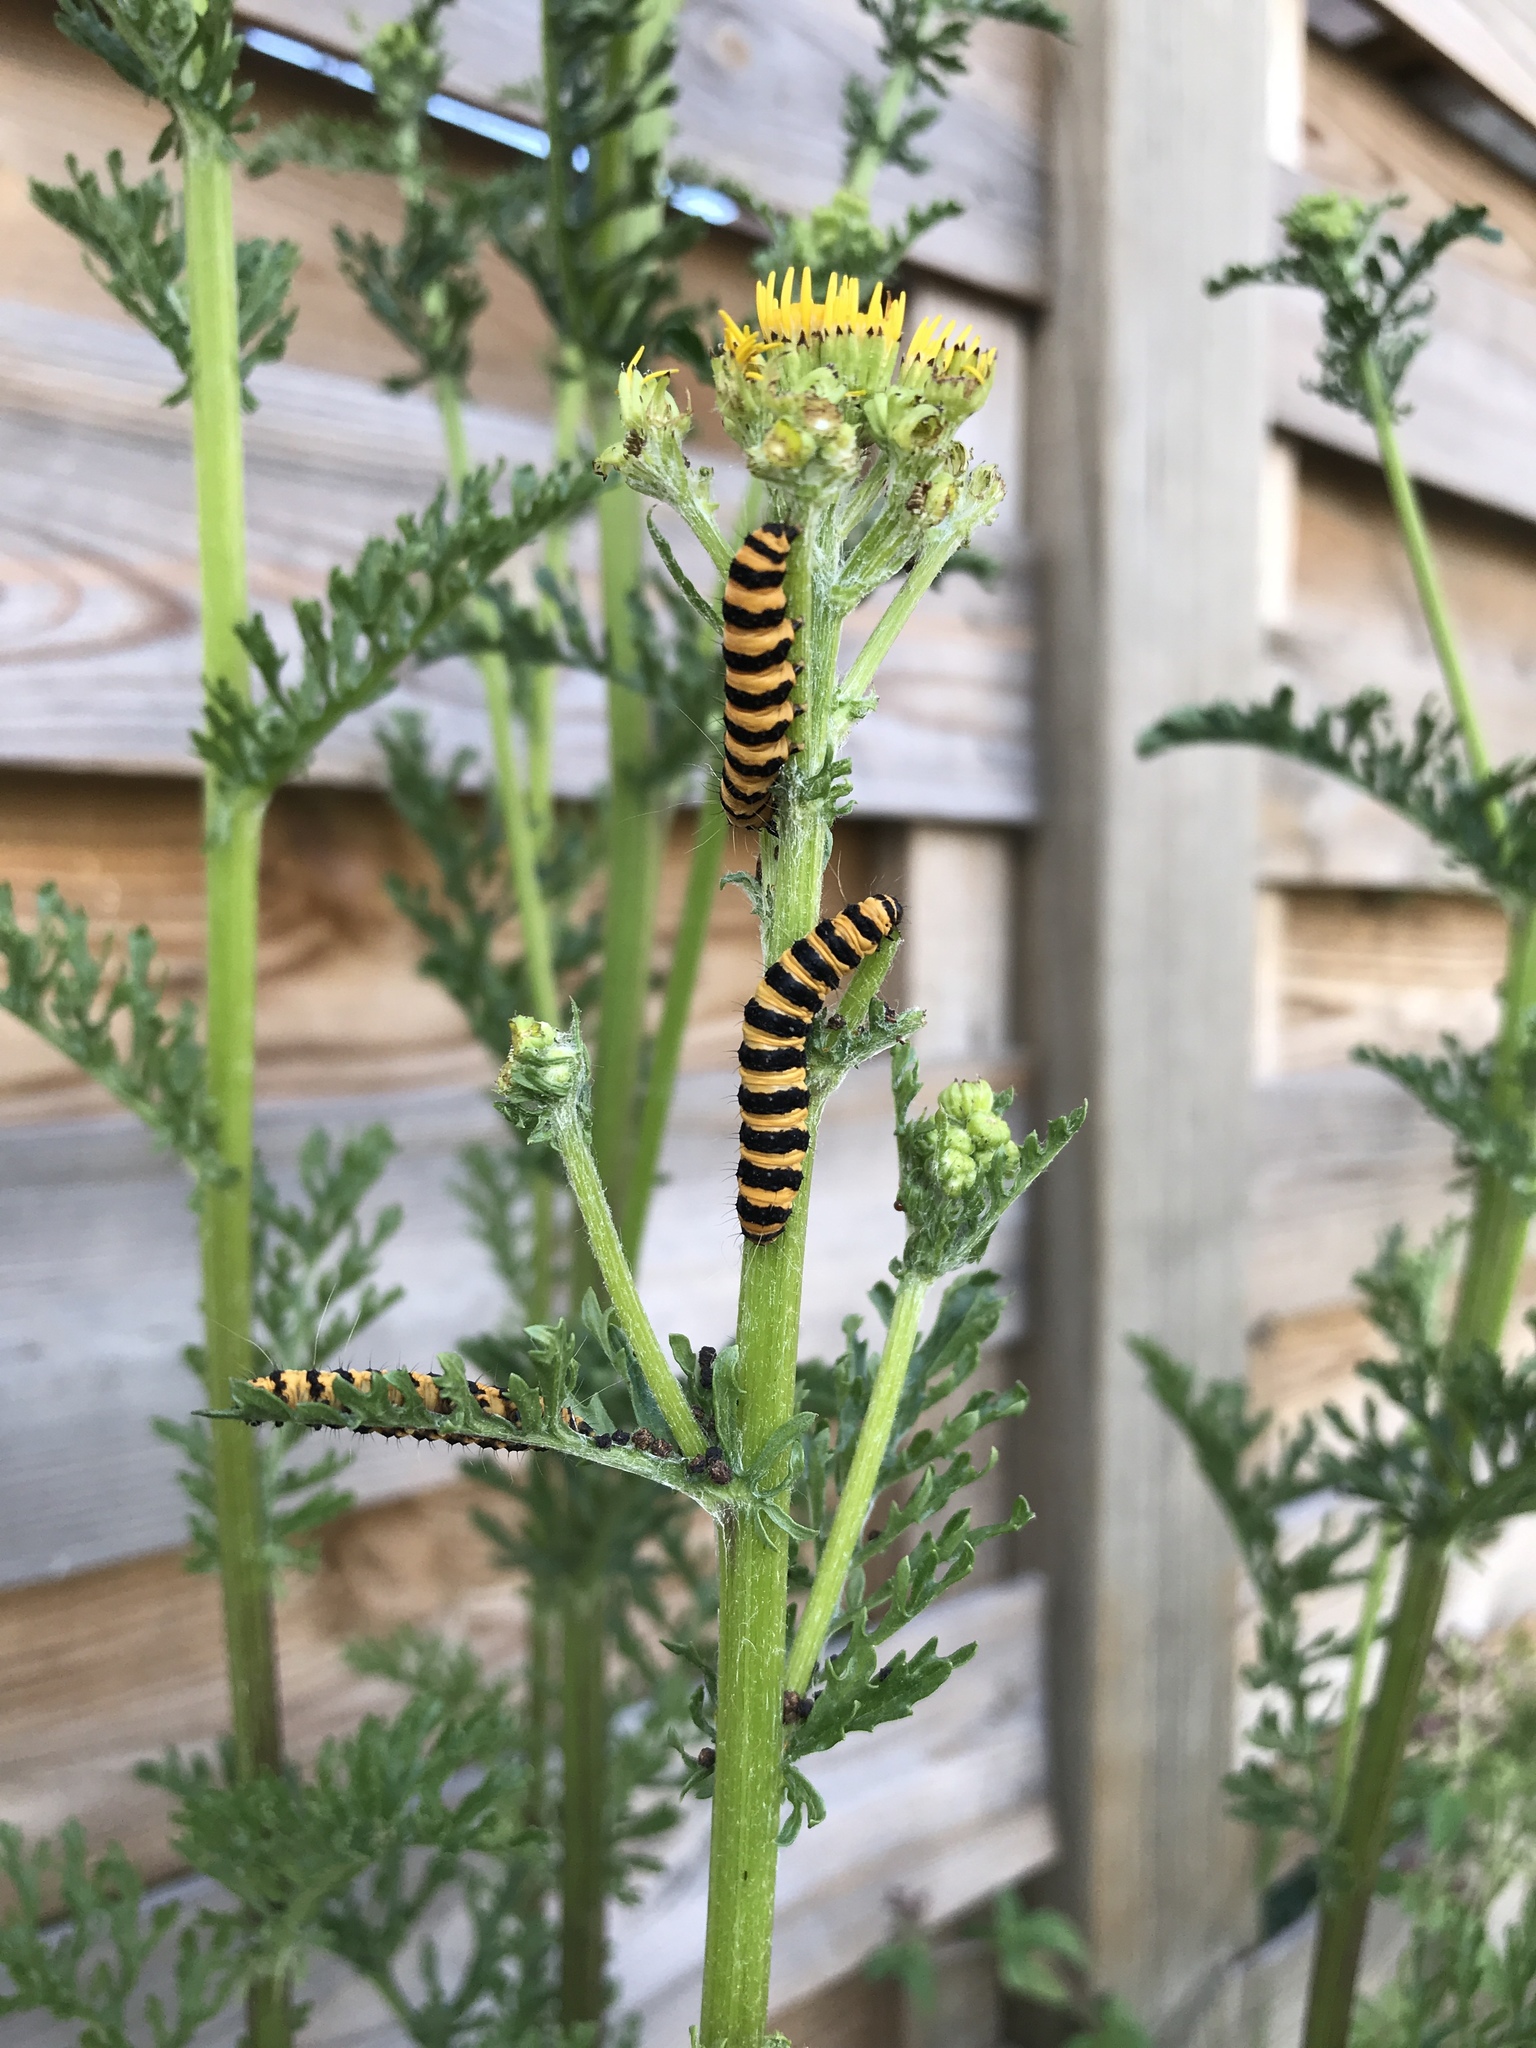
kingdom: Animalia
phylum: Arthropoda
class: Insecta
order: Lepidoptera
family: Erebidae
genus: Tyria
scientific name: Tyria jacobaeae
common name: Cinnabar
